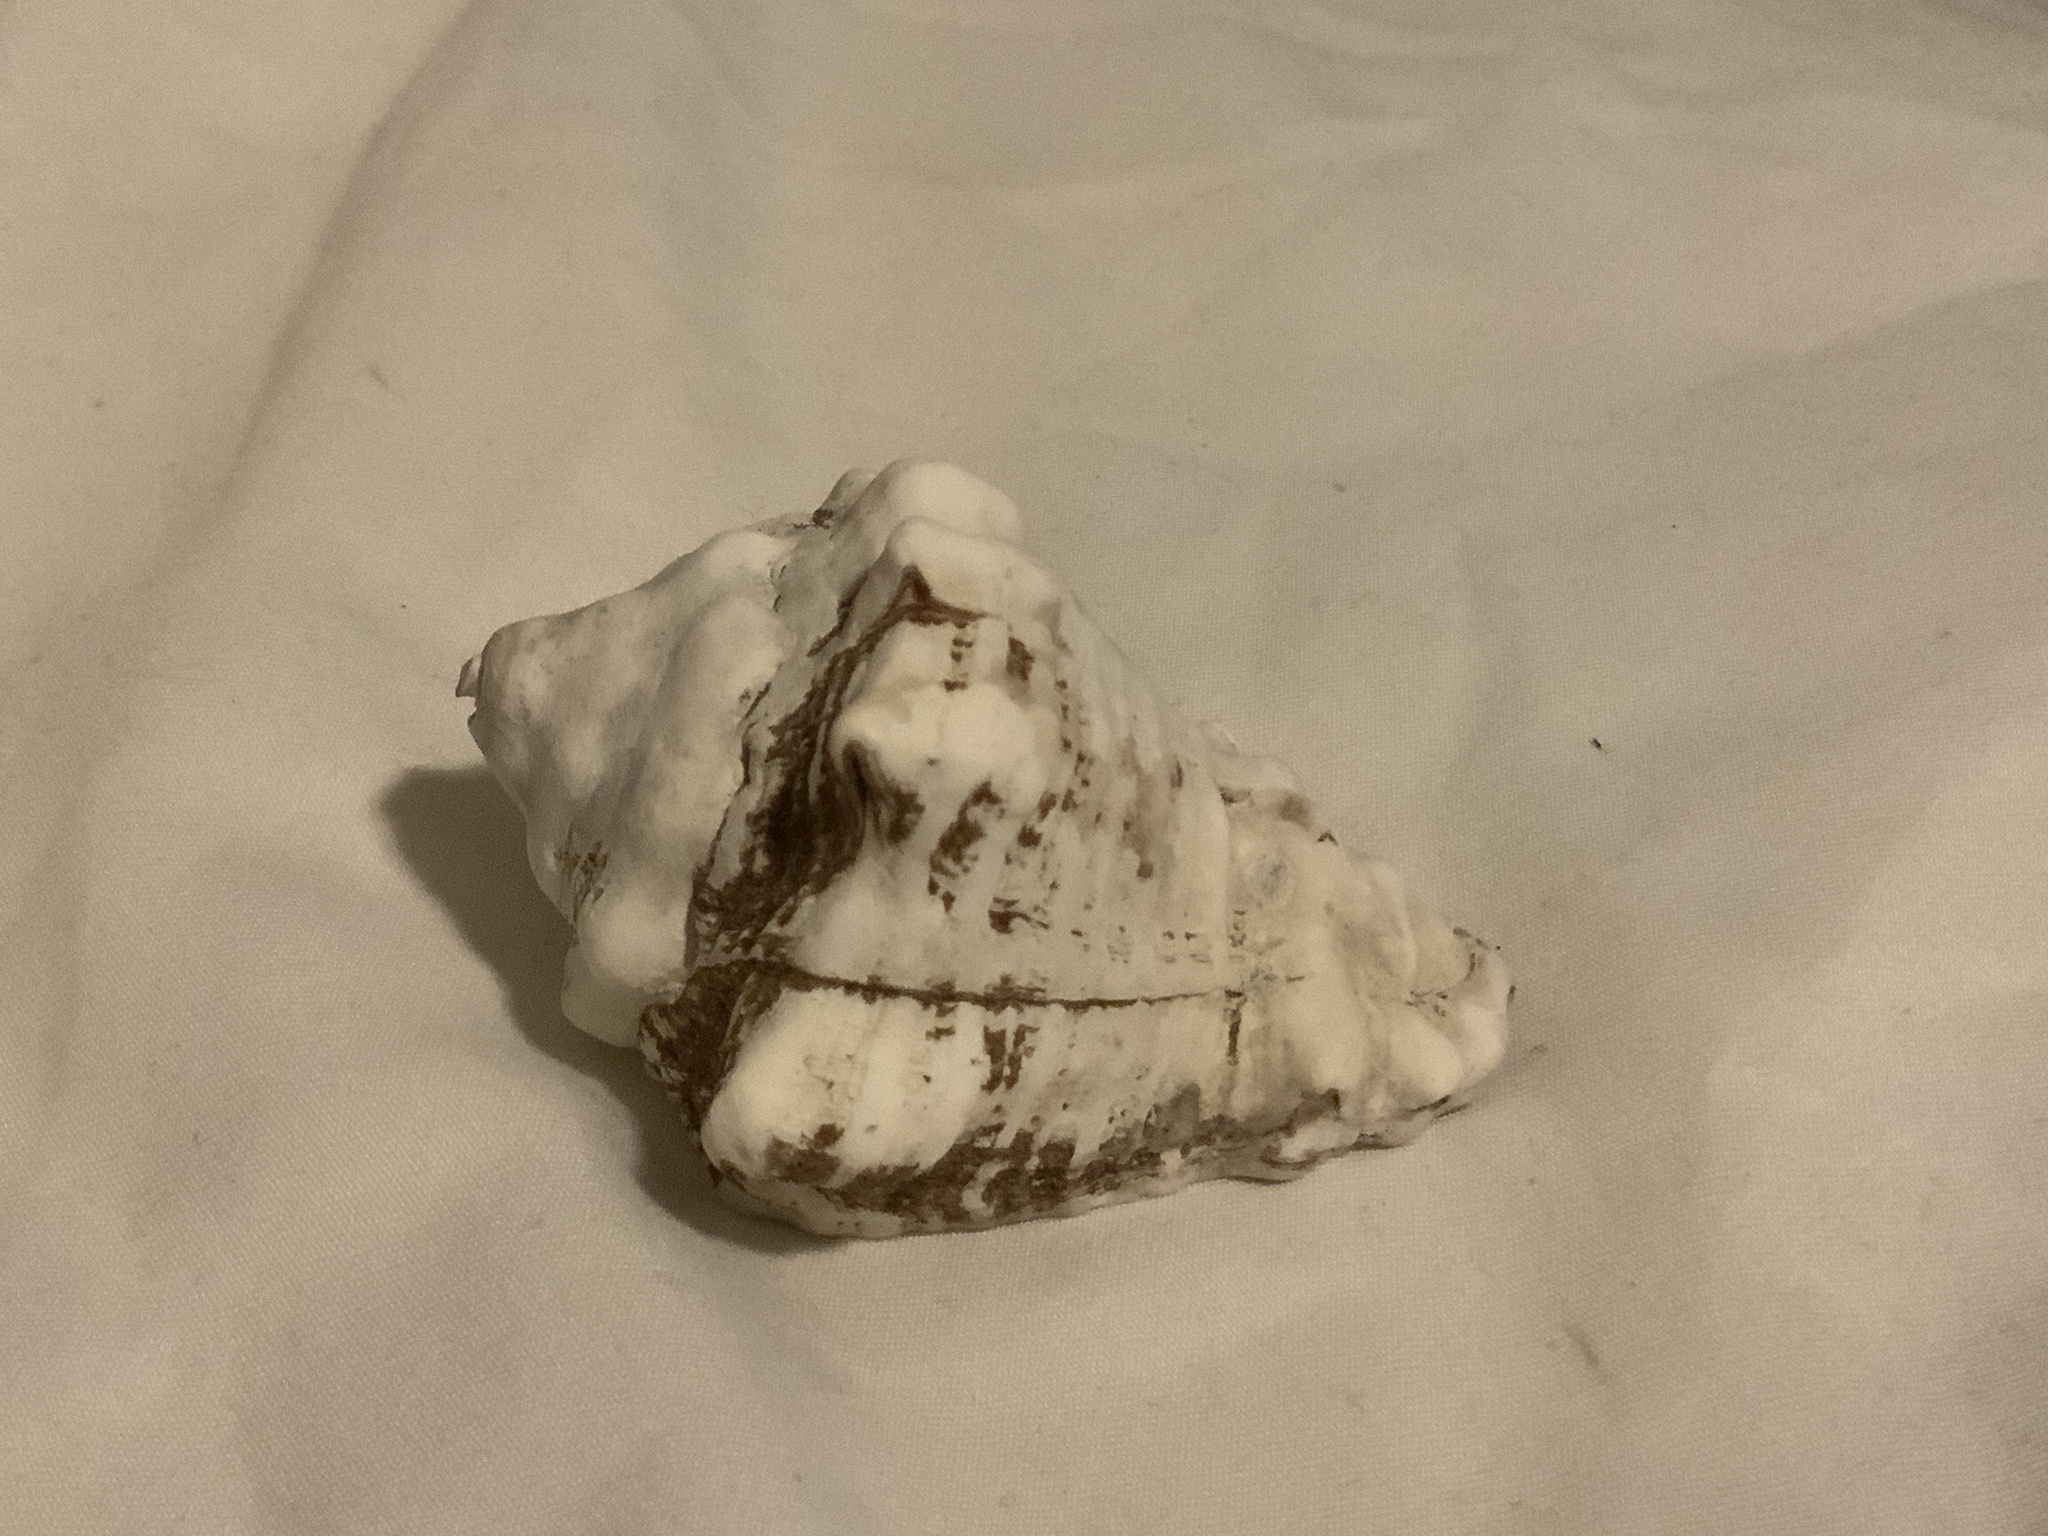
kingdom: Animalia
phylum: Mollusca
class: Gastropoda
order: Neogastropoda
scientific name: Neogastropoda
